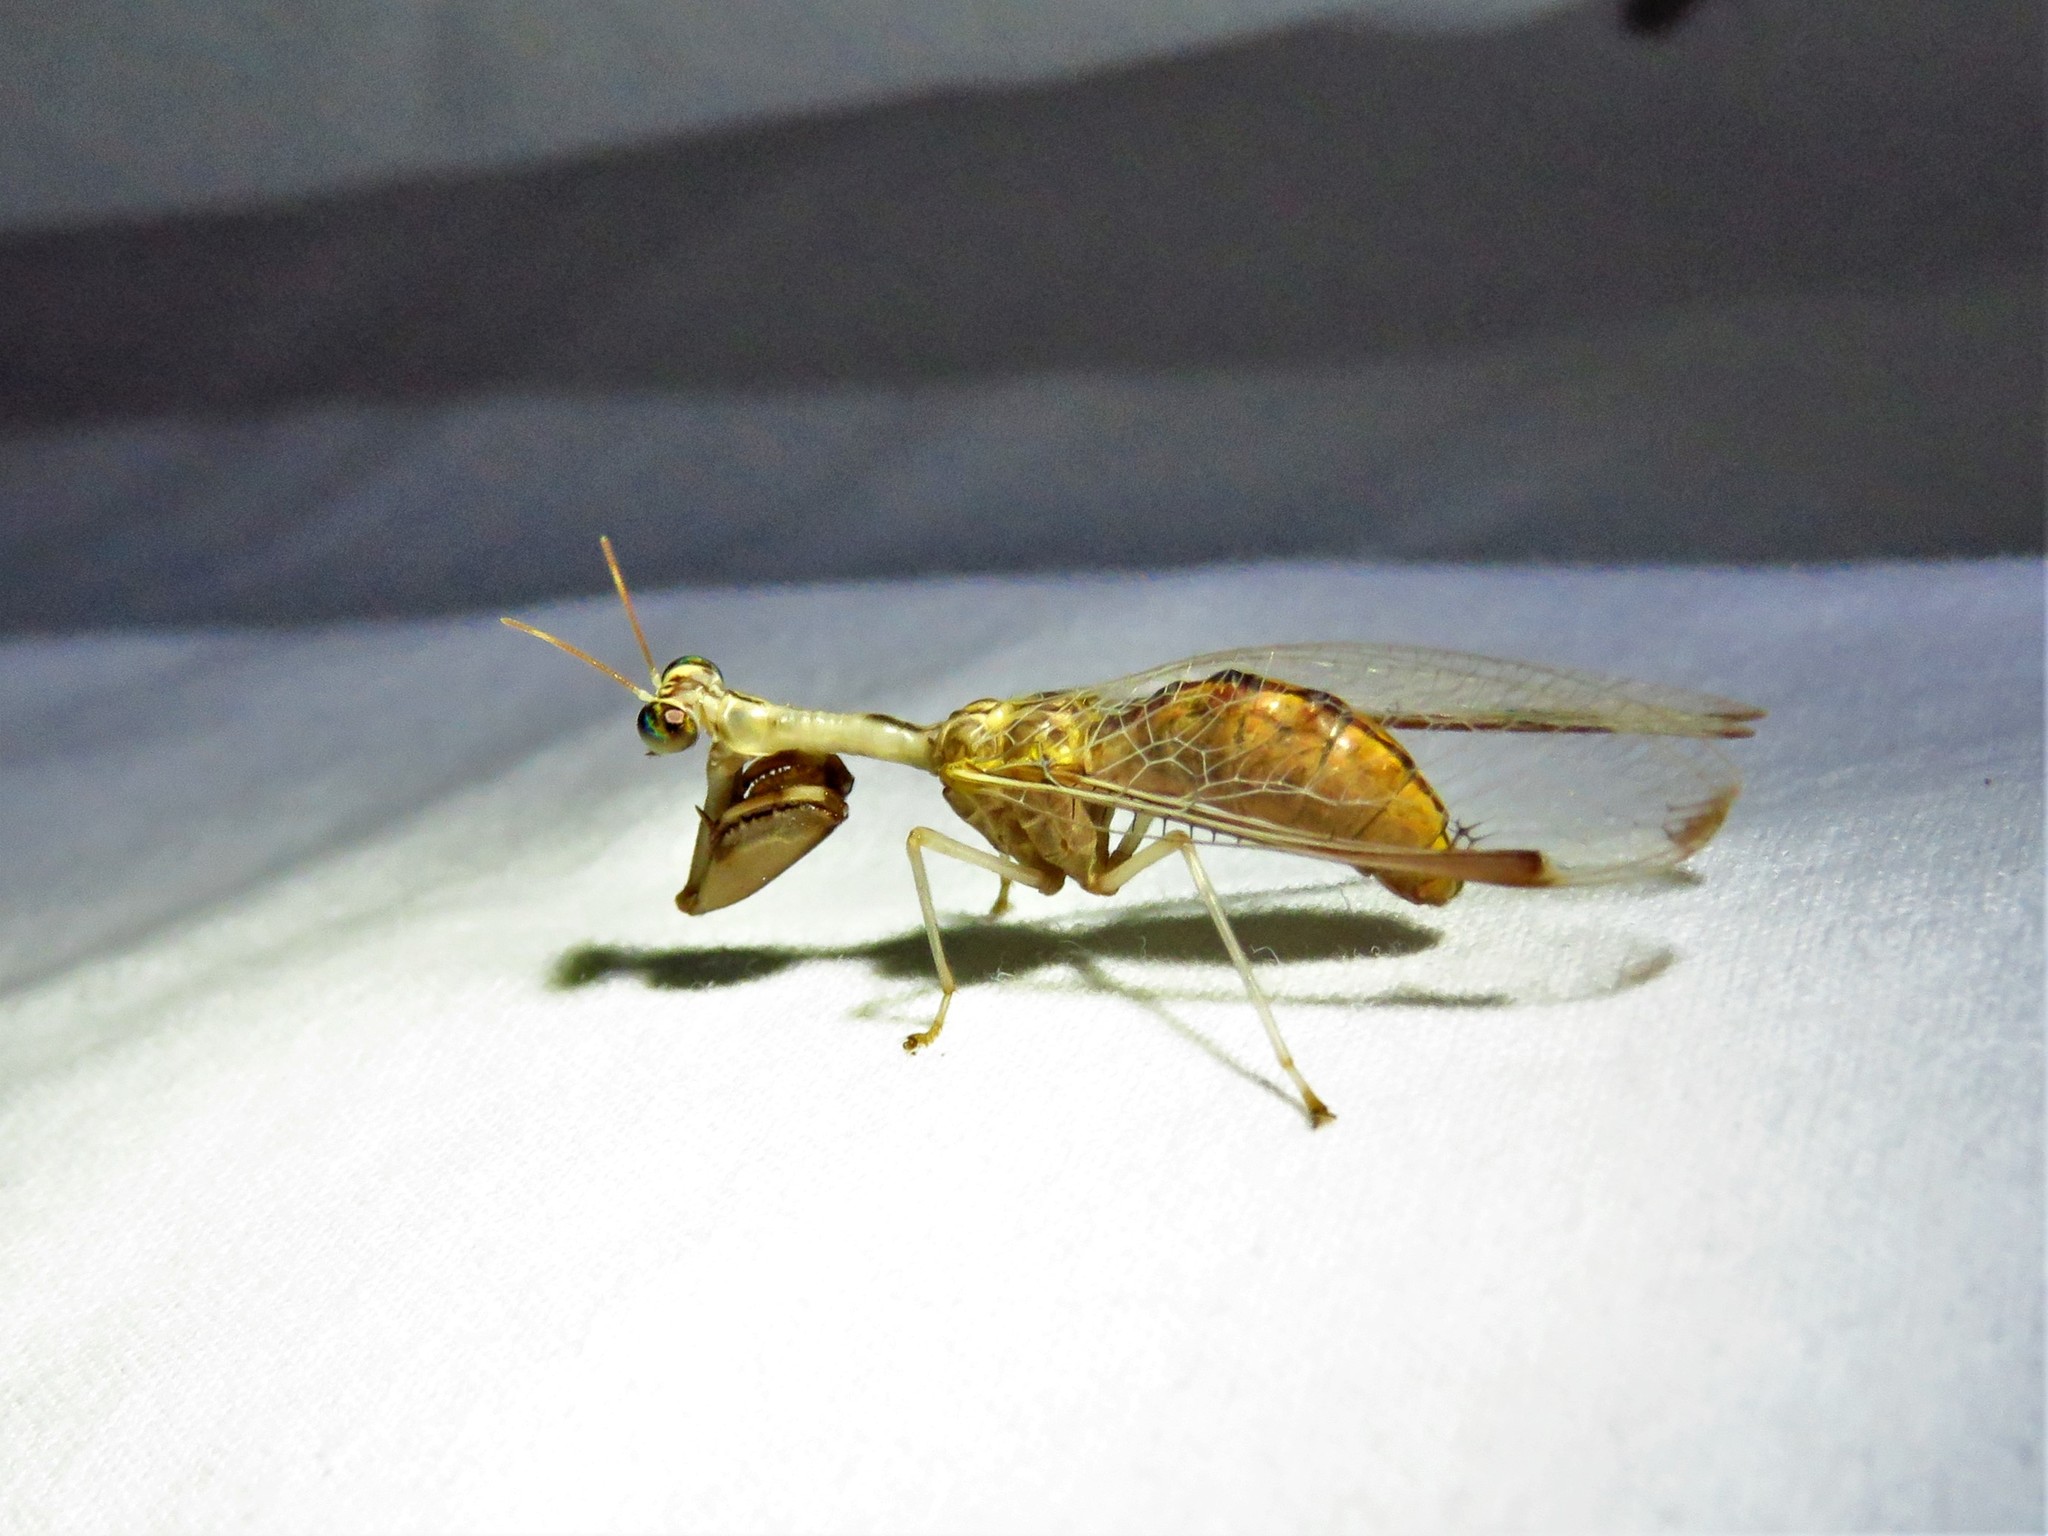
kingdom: Animalia
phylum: Arthropoda
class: Insecta
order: Neuroptera
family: Mantispidae
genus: Dicromantispa
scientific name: Dicromantispa interrupta
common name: Four-spotted mantidfly
